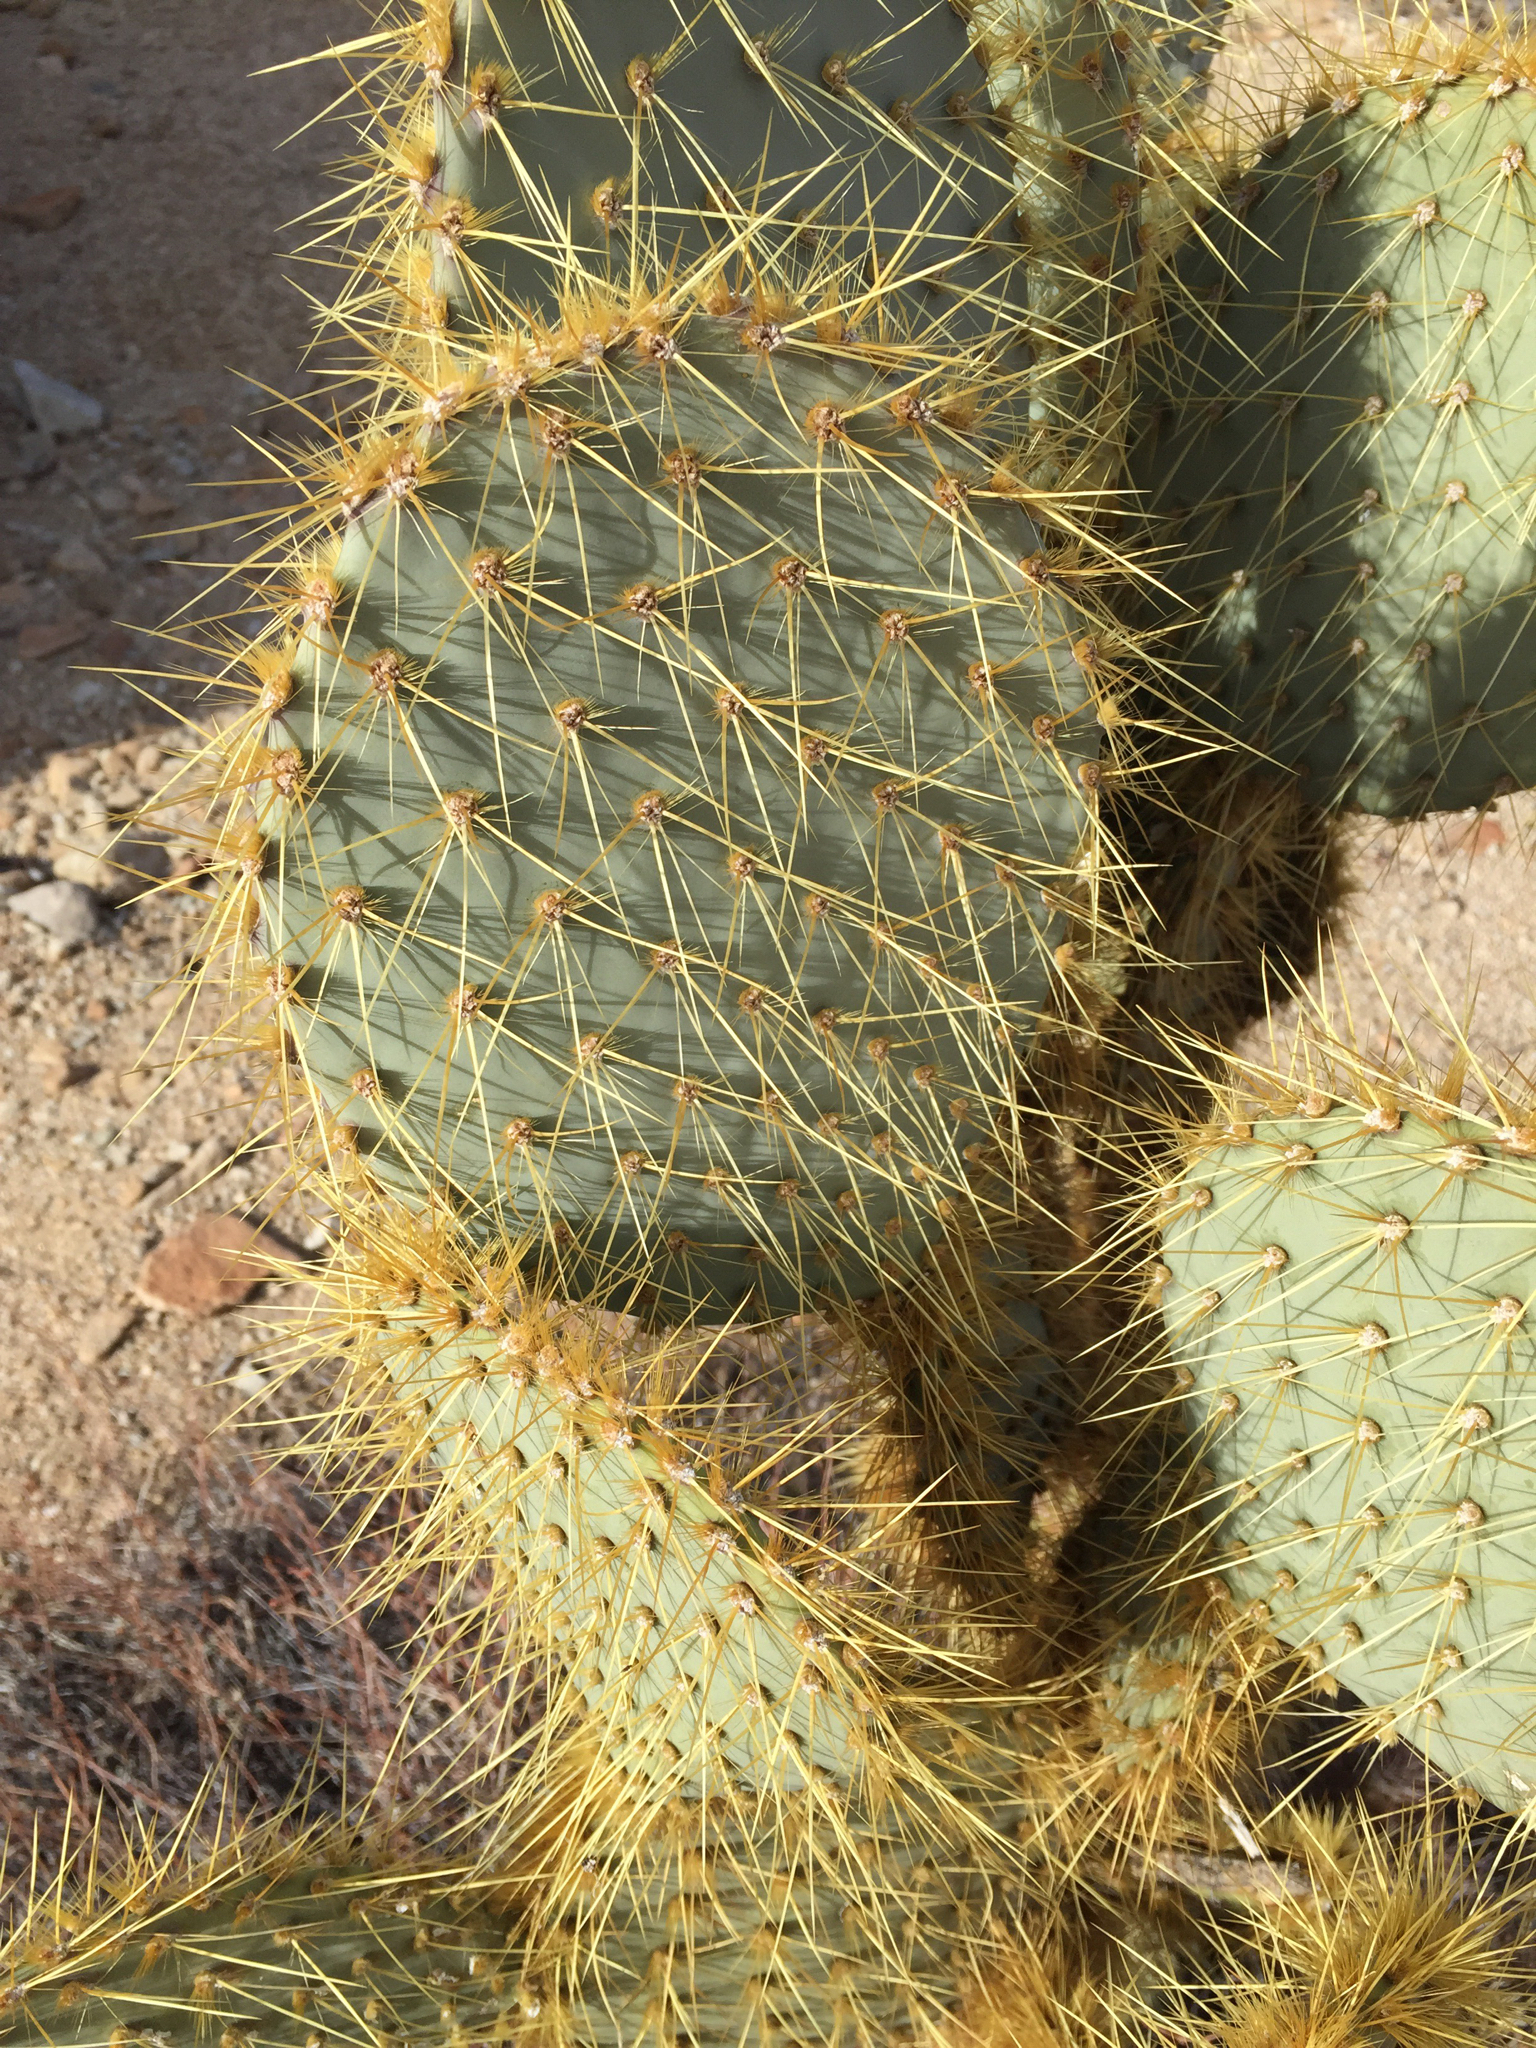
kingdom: Plantae
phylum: Tracheophyta
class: Magnoliopsida
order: Caryophyllales
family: Cactaceae
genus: Opuntia
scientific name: Opuntia chlorotica
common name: Dollar-joint prickly-pear
